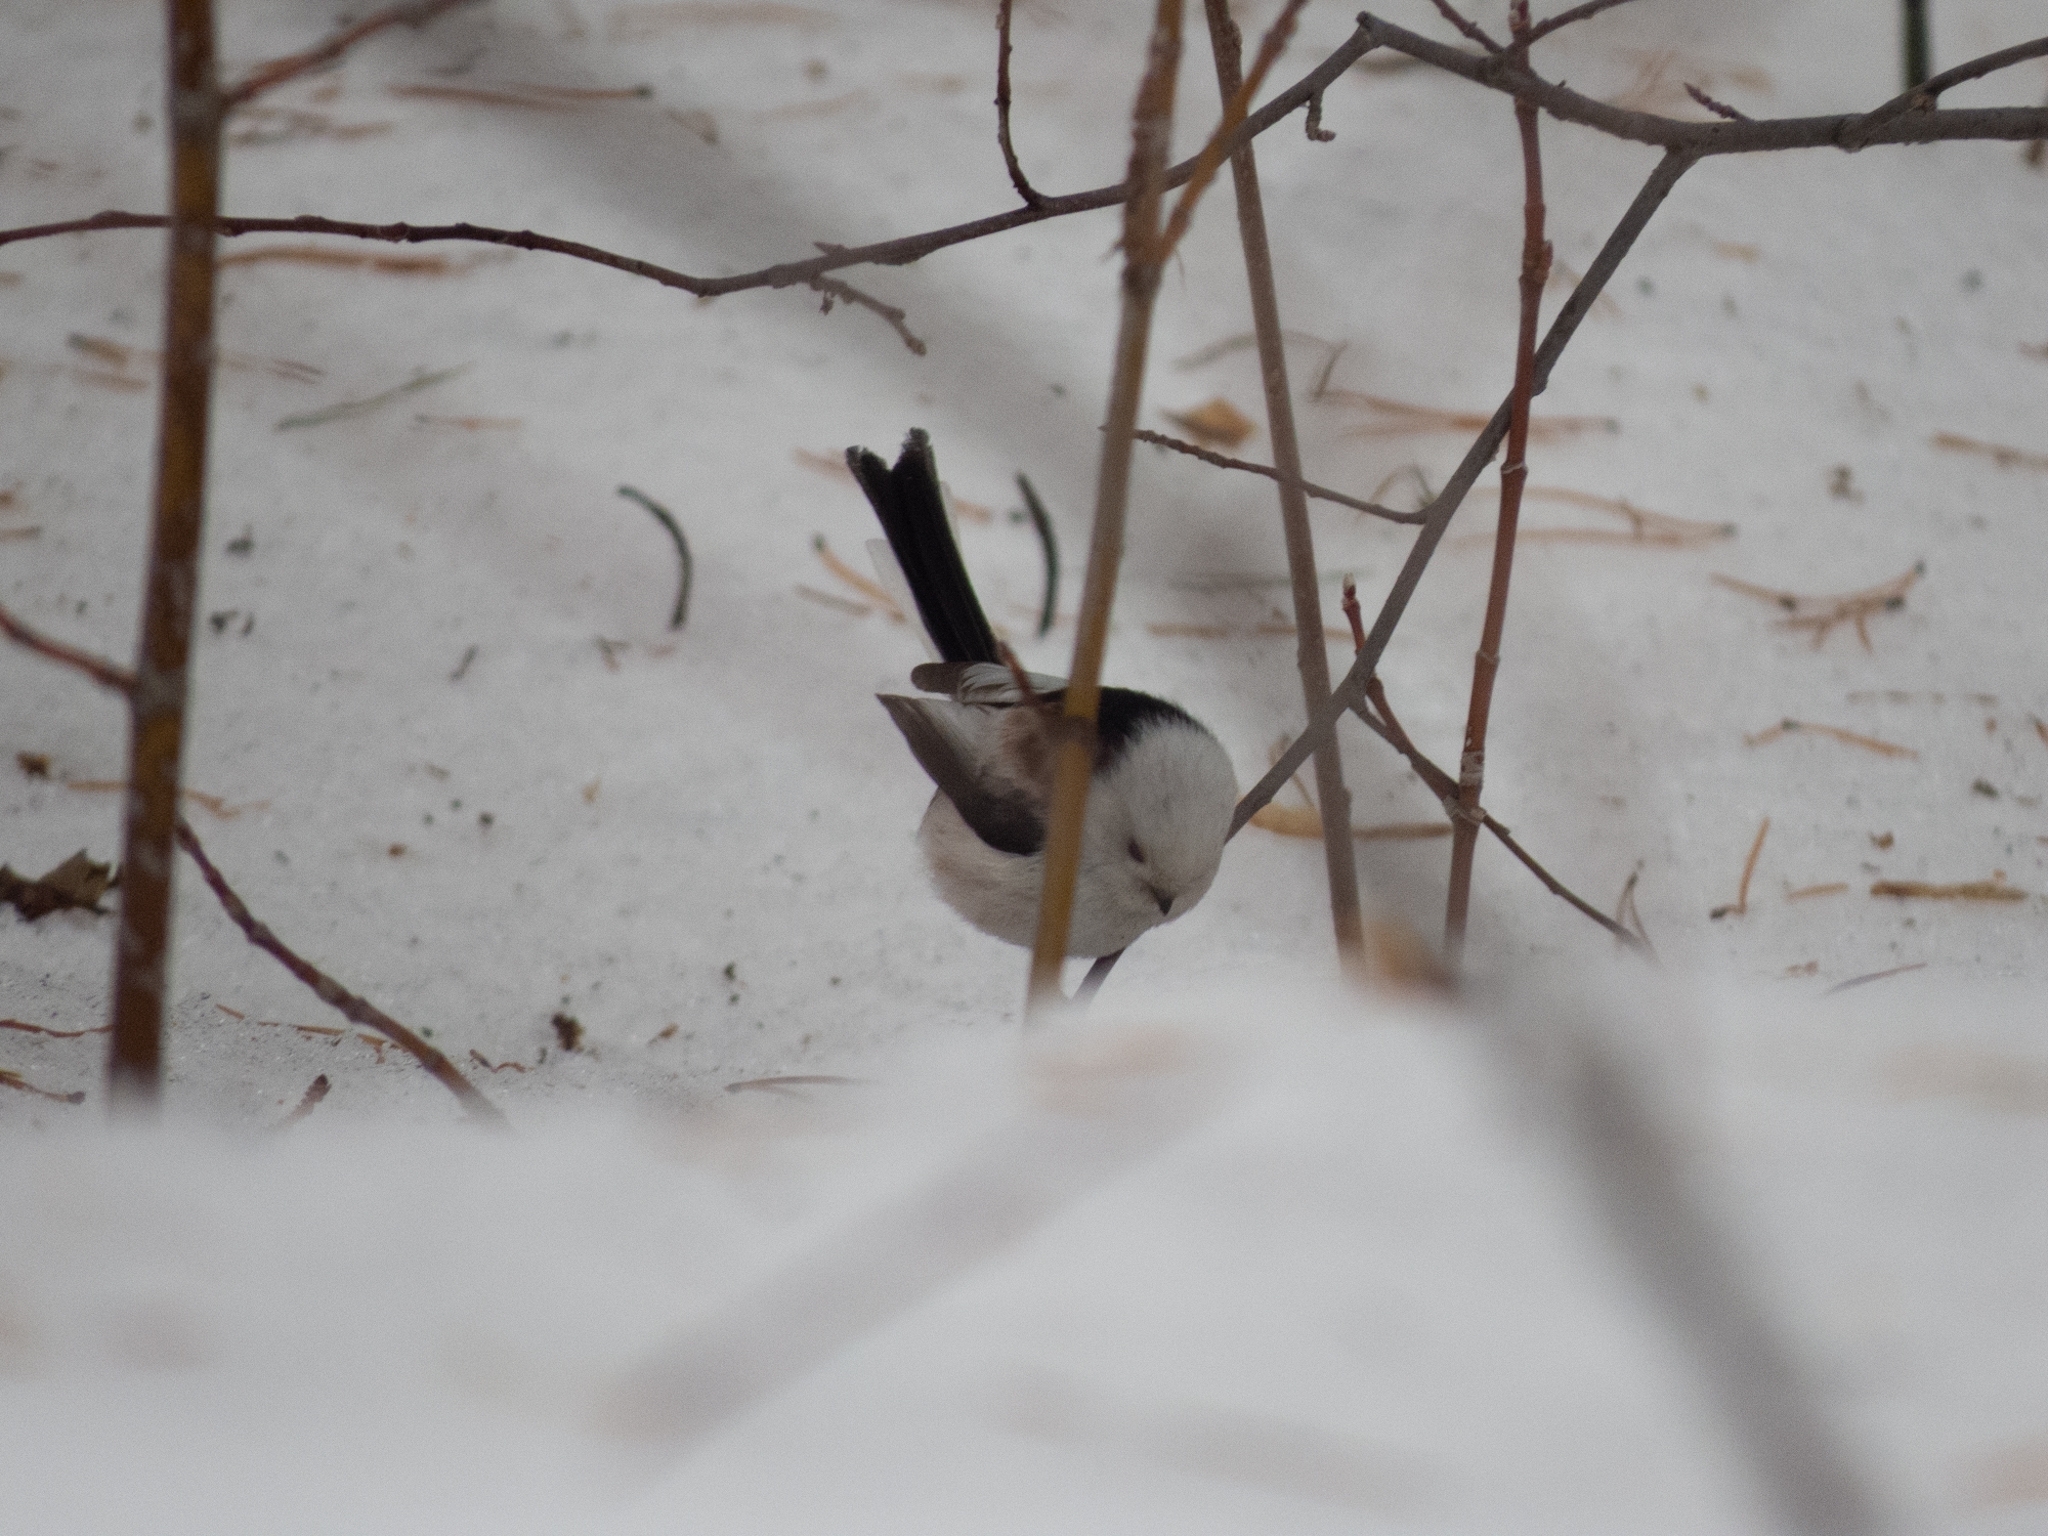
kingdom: Animalia
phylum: Chordata
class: Aves
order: Passeriformes
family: Aegithalidae
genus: Aegithalos
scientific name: Aegithalos caudatus
